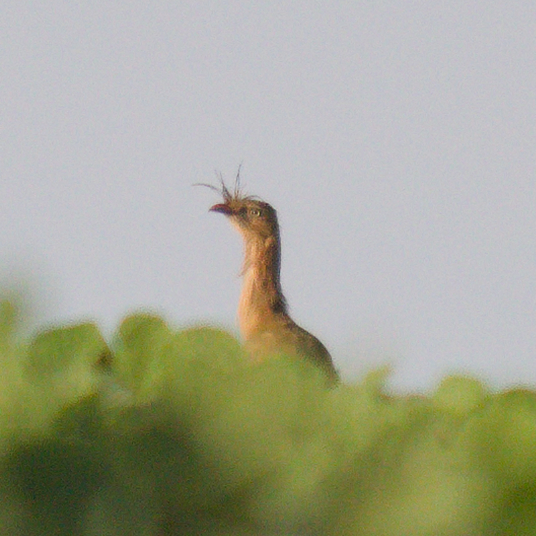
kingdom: Animalia
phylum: Chordata
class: Aves
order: Cariamiformes
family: Cariamidae
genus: Cariama
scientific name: Cariama cristata
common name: Red-legged seriema
